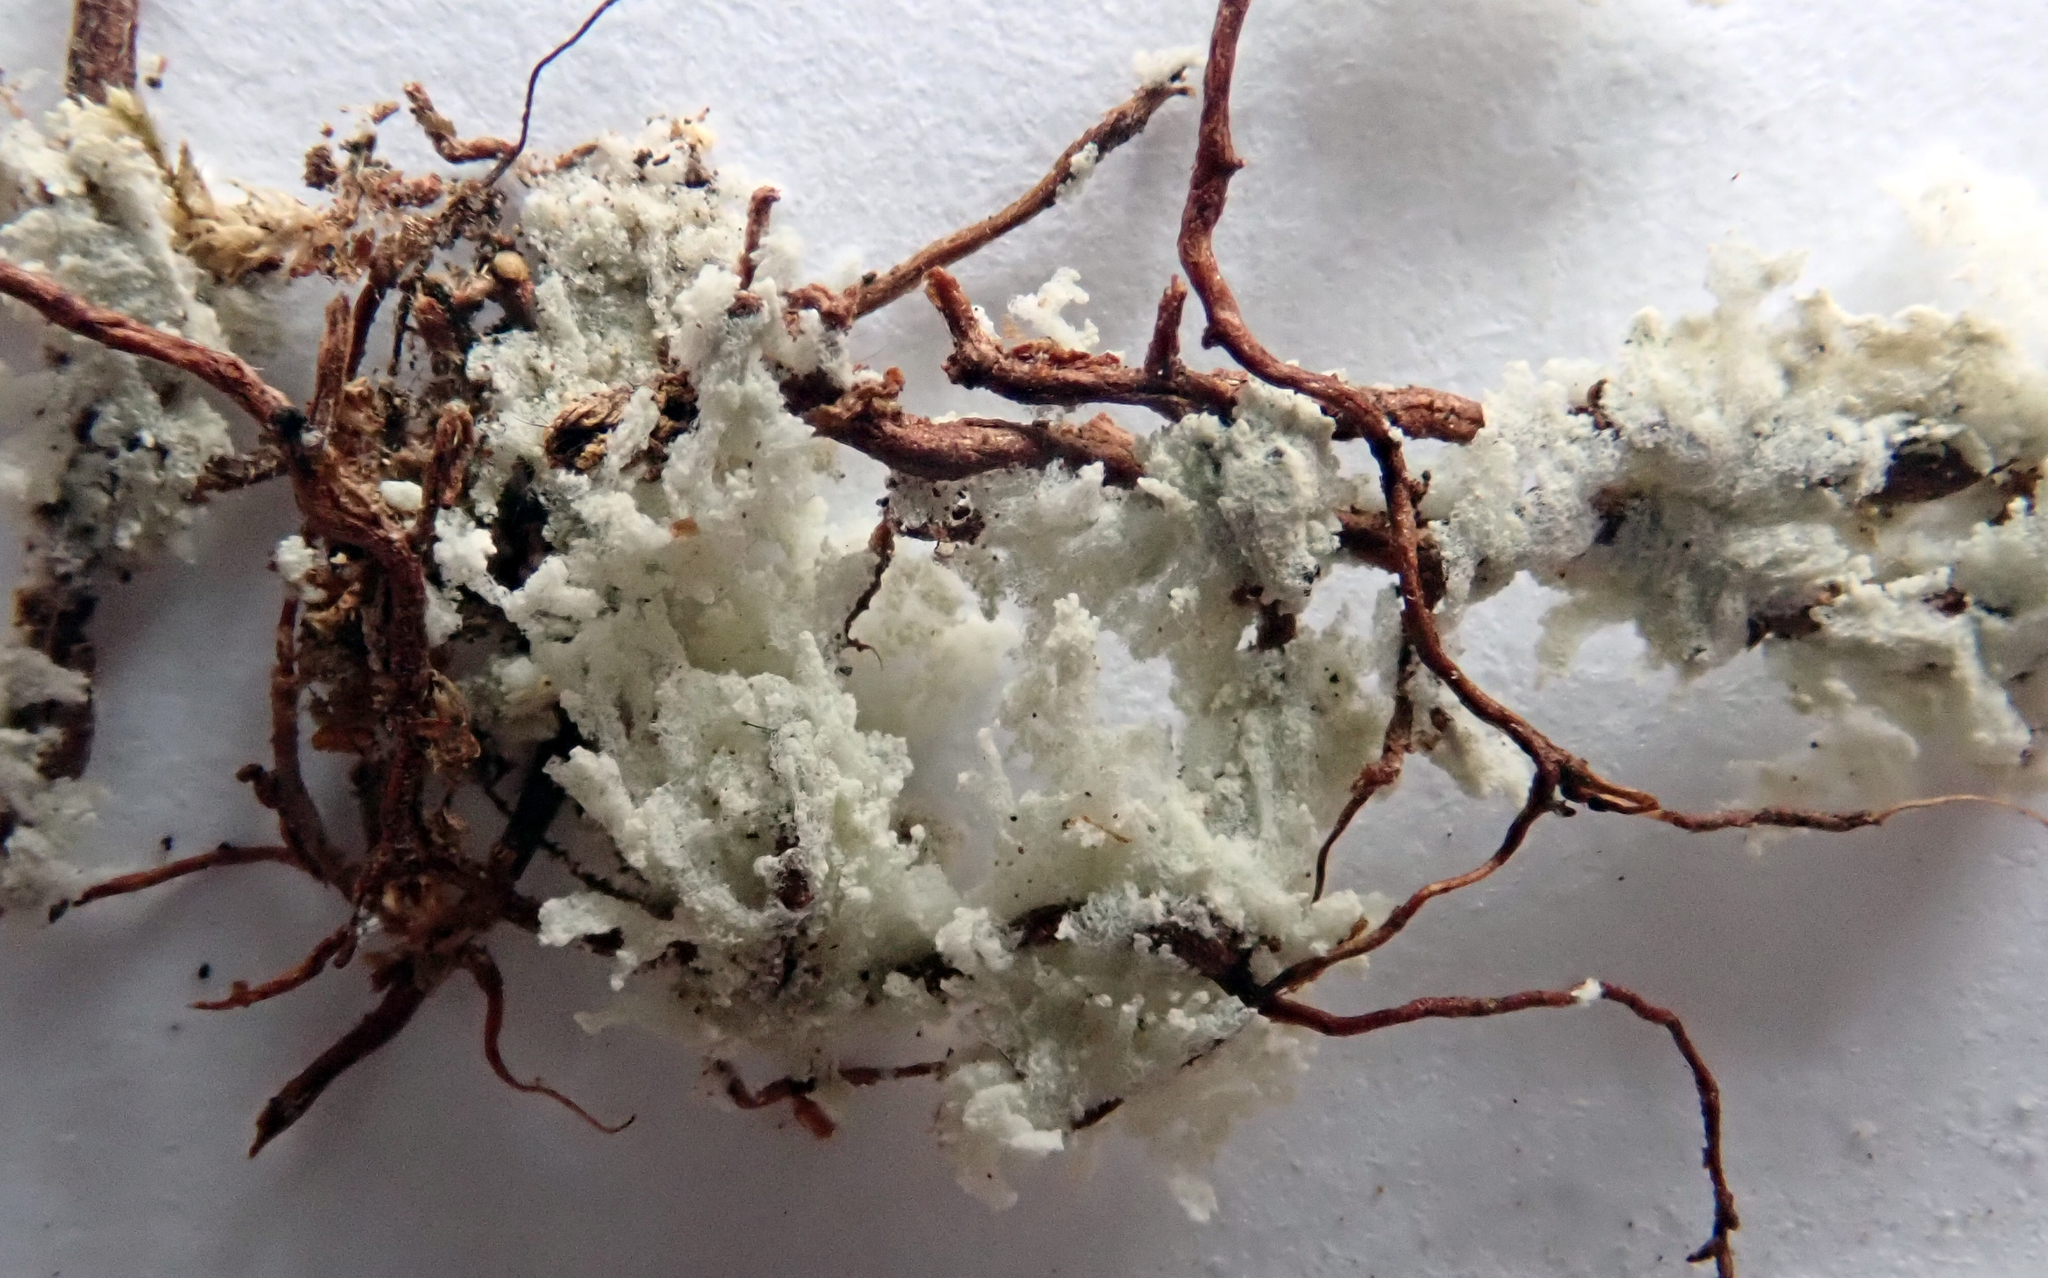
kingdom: Fungi
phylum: Ascomycota
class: Lecanoromycetes
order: Lecanorales
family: Byssolomataceae
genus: Roccellinastrum
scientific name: Roccellinastrum neglectum
